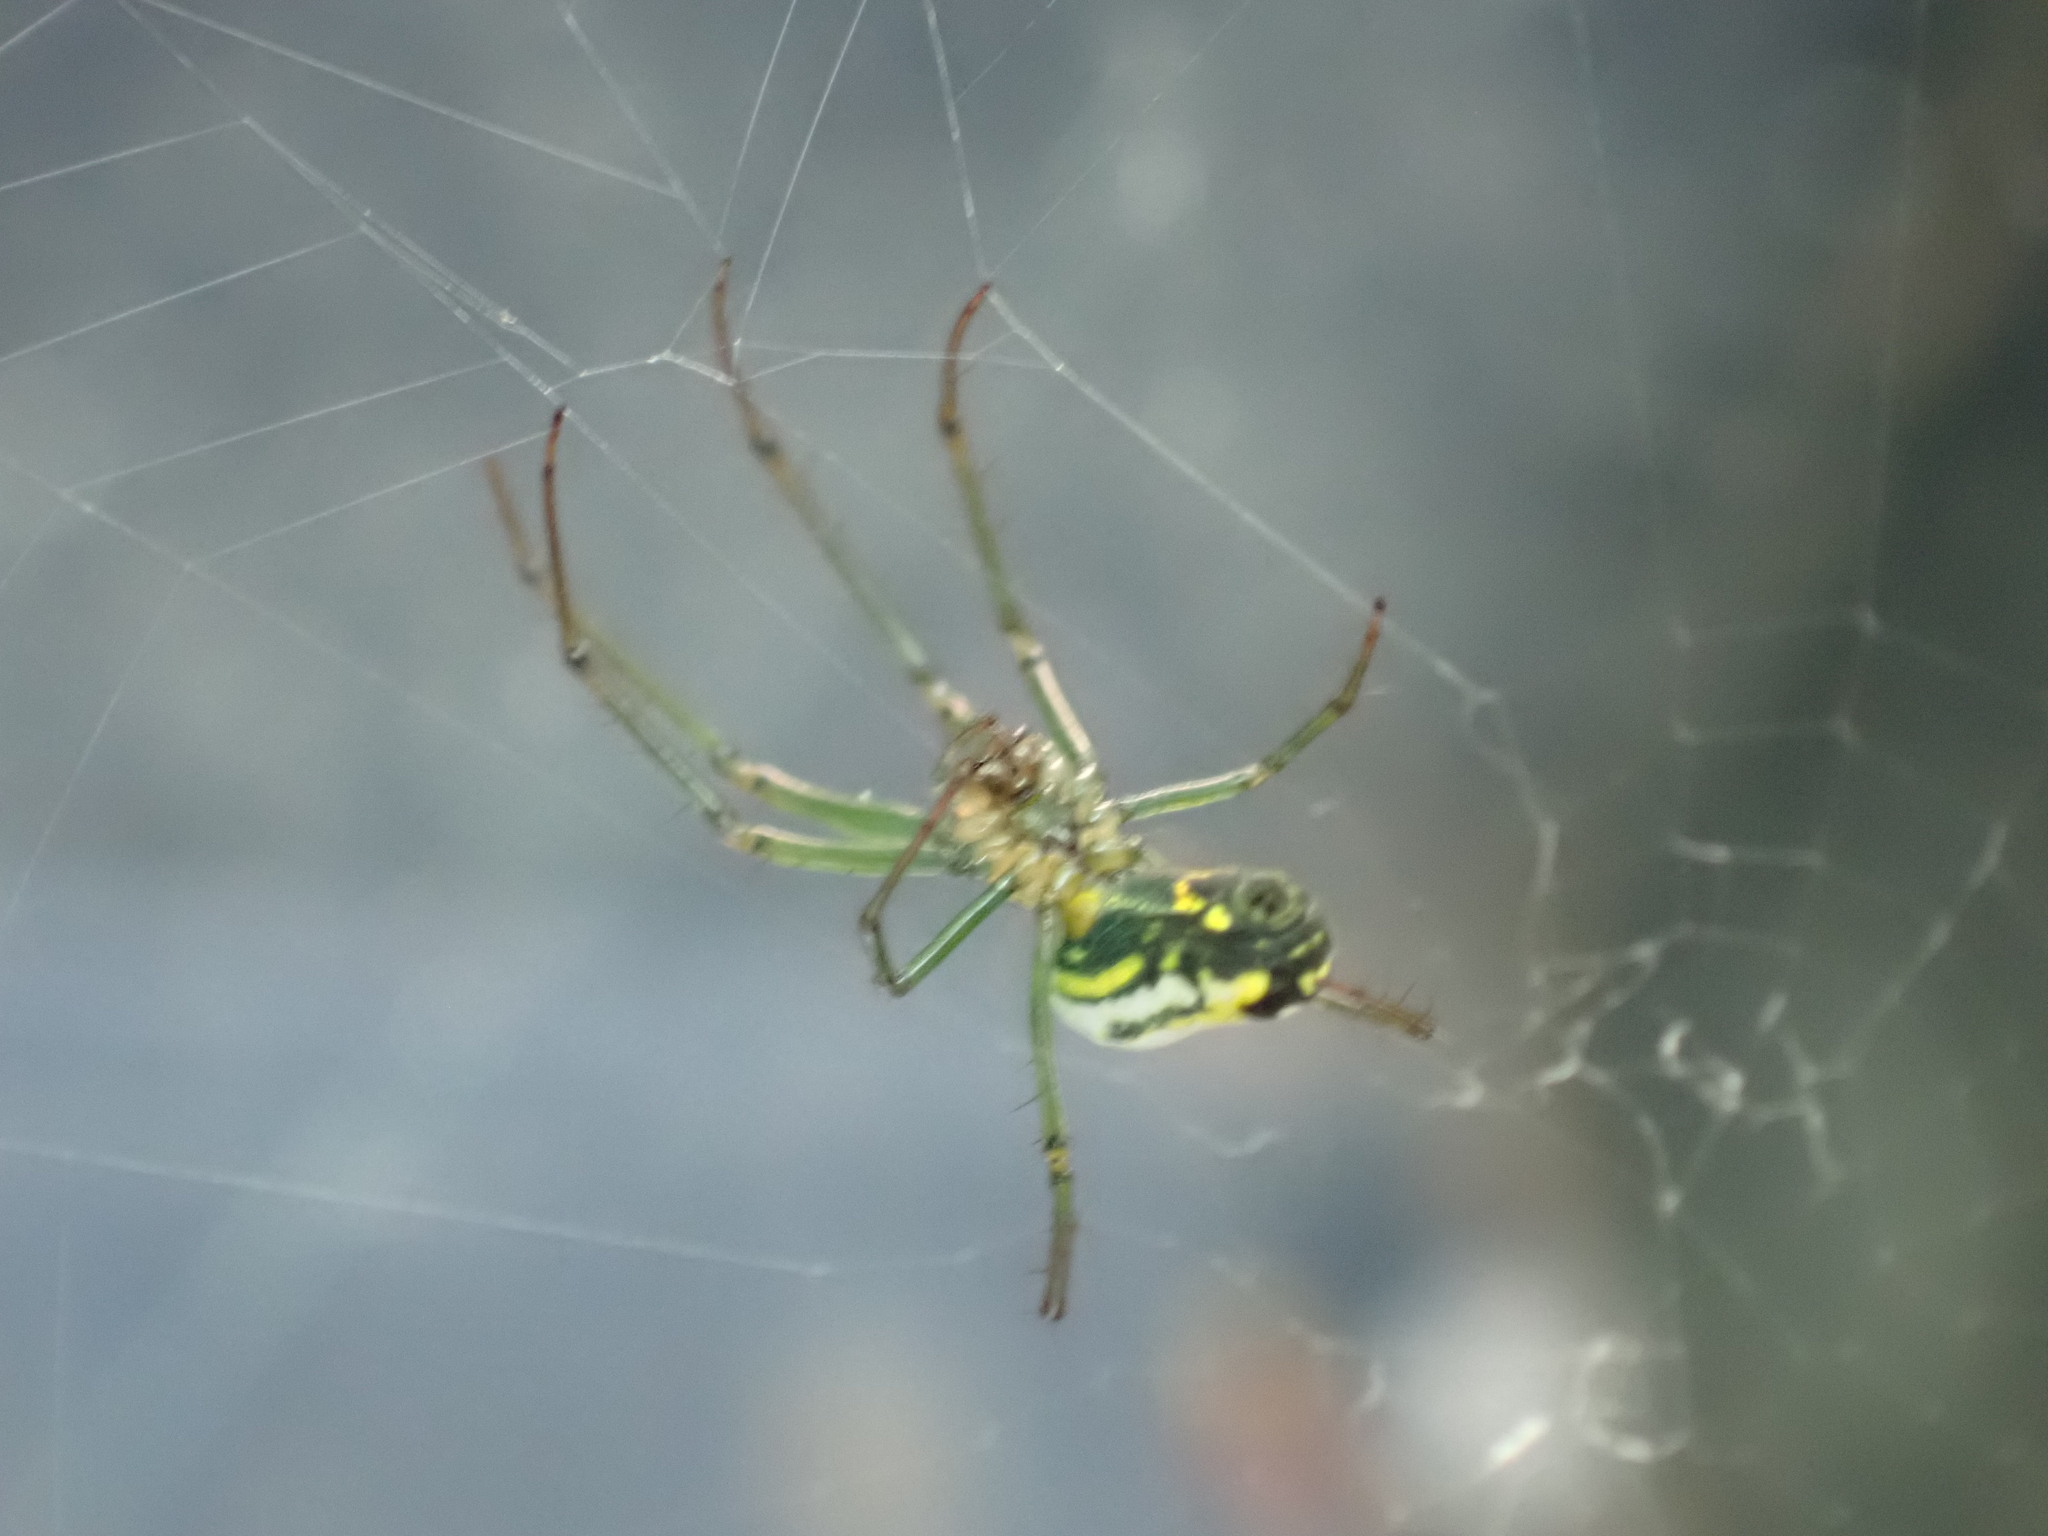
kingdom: Animalia
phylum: Arthropoda
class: Arachnida
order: Araneae
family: Tetragnathidae
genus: Leucauge
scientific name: Leucauge venusta
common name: Longjawed orb weavers
